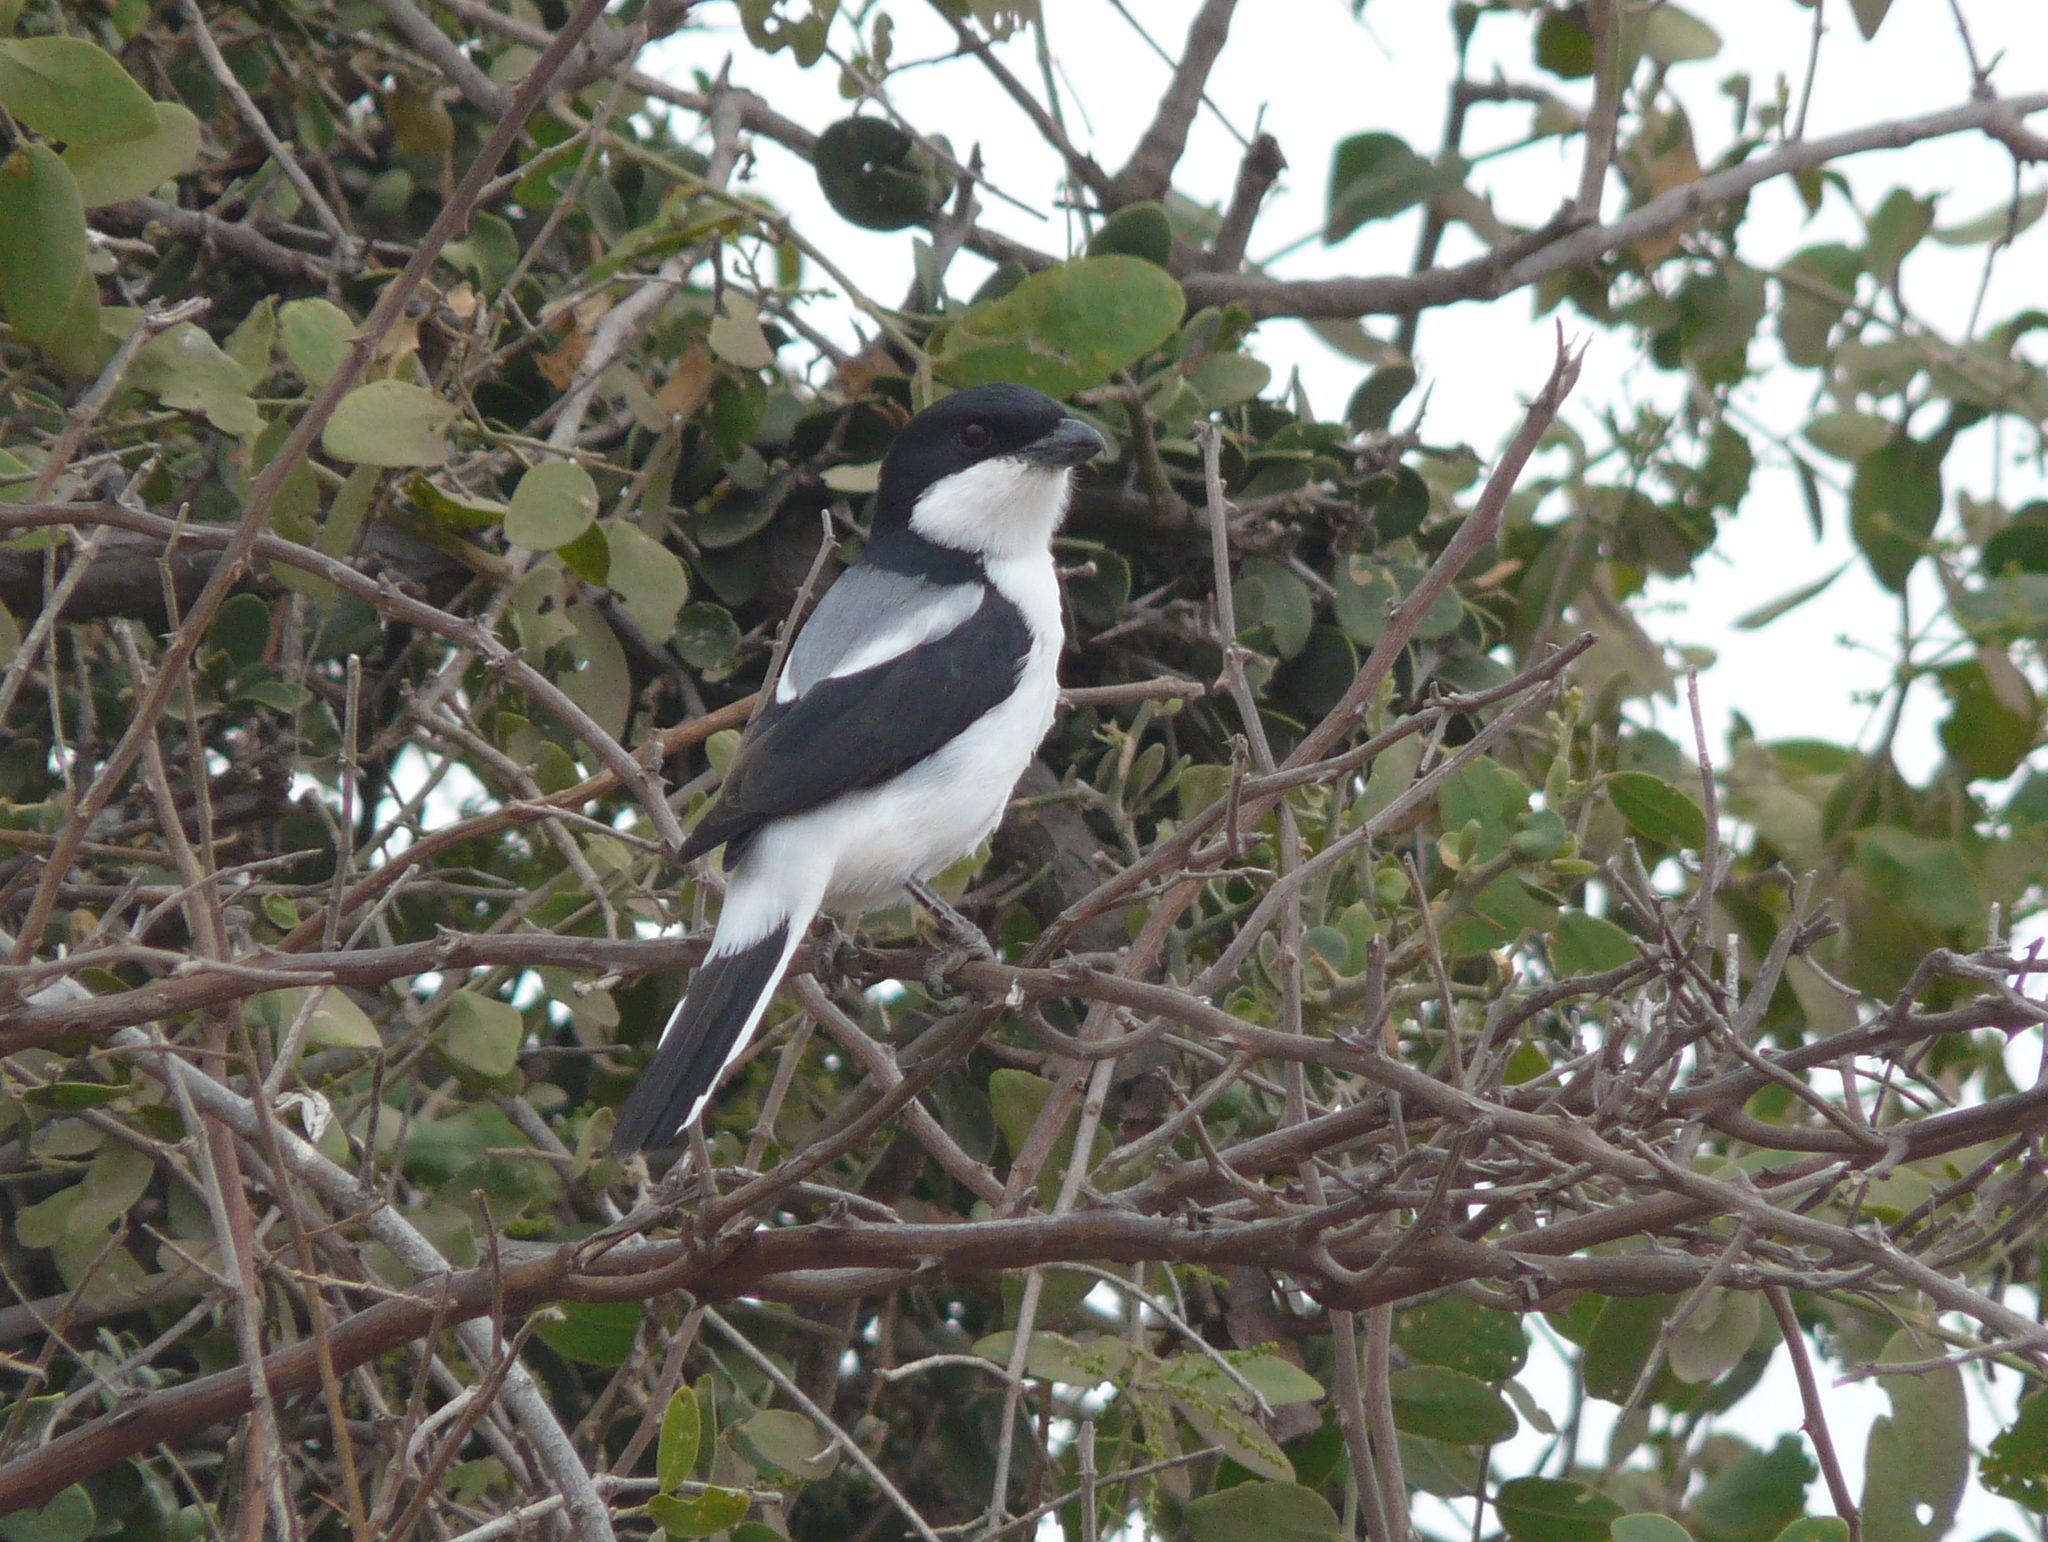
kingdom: Animalia
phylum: Chordata
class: Aves
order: Passeriformes
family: Laniidae
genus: Lanius
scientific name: Lanius dorsalis
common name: Taita fiscal
